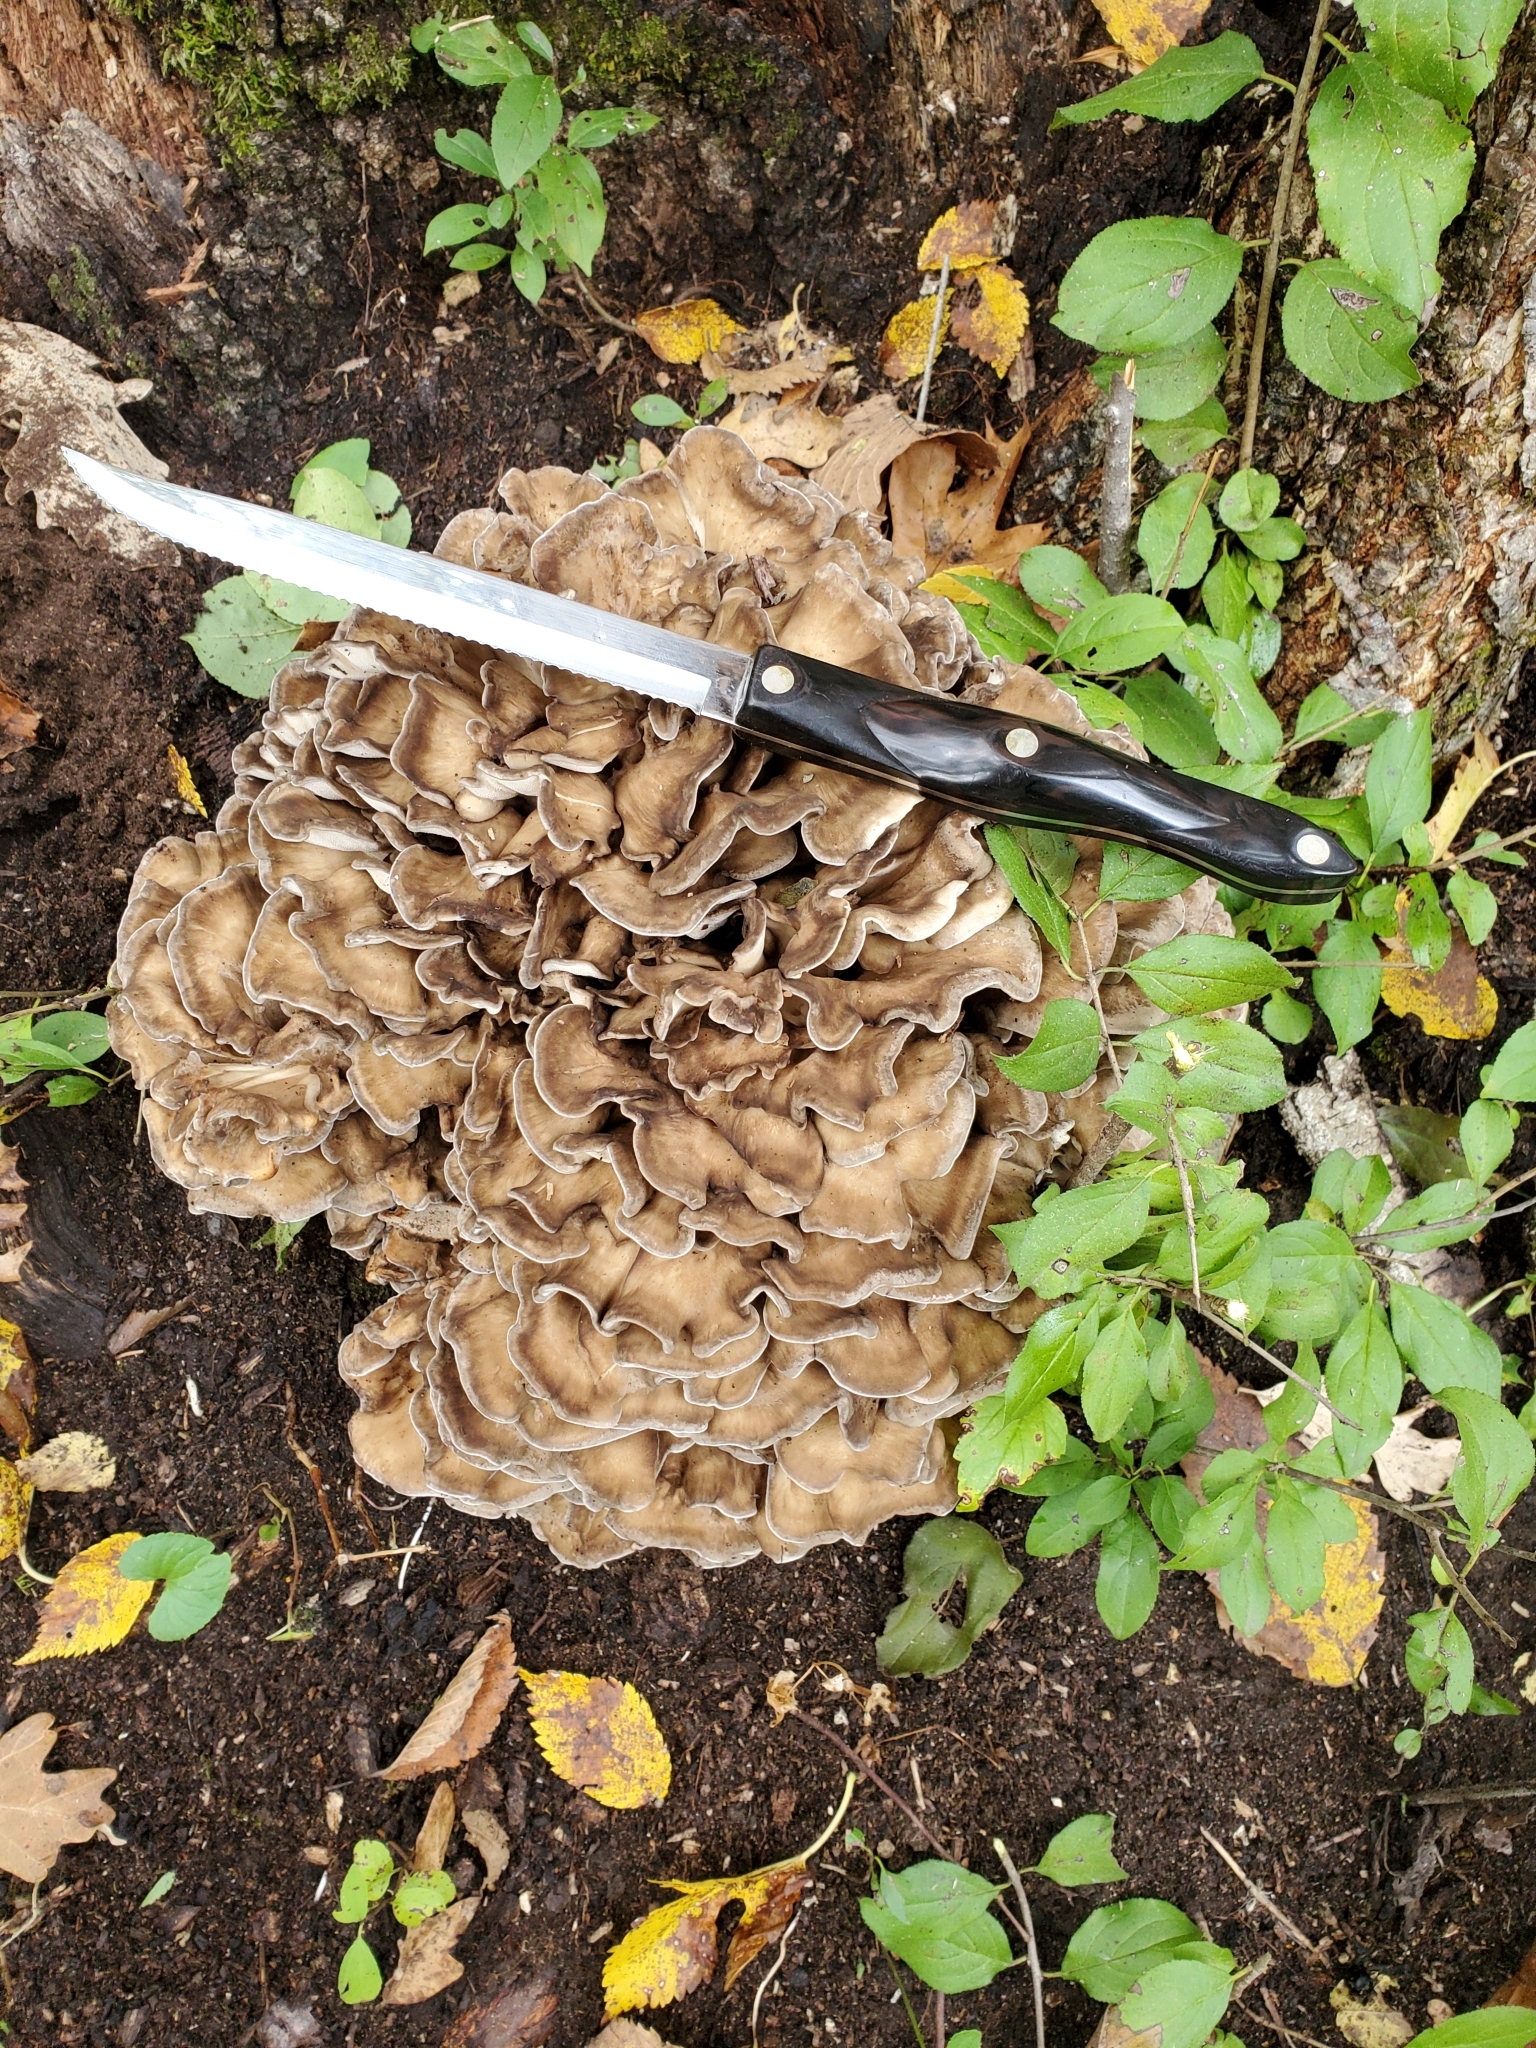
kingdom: Fungi
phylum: Basidiomycota
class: Agaricomycetes
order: Polyporales
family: Grifolaceae
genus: Grifola
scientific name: Grifola frondosa
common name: Hen of the woods
